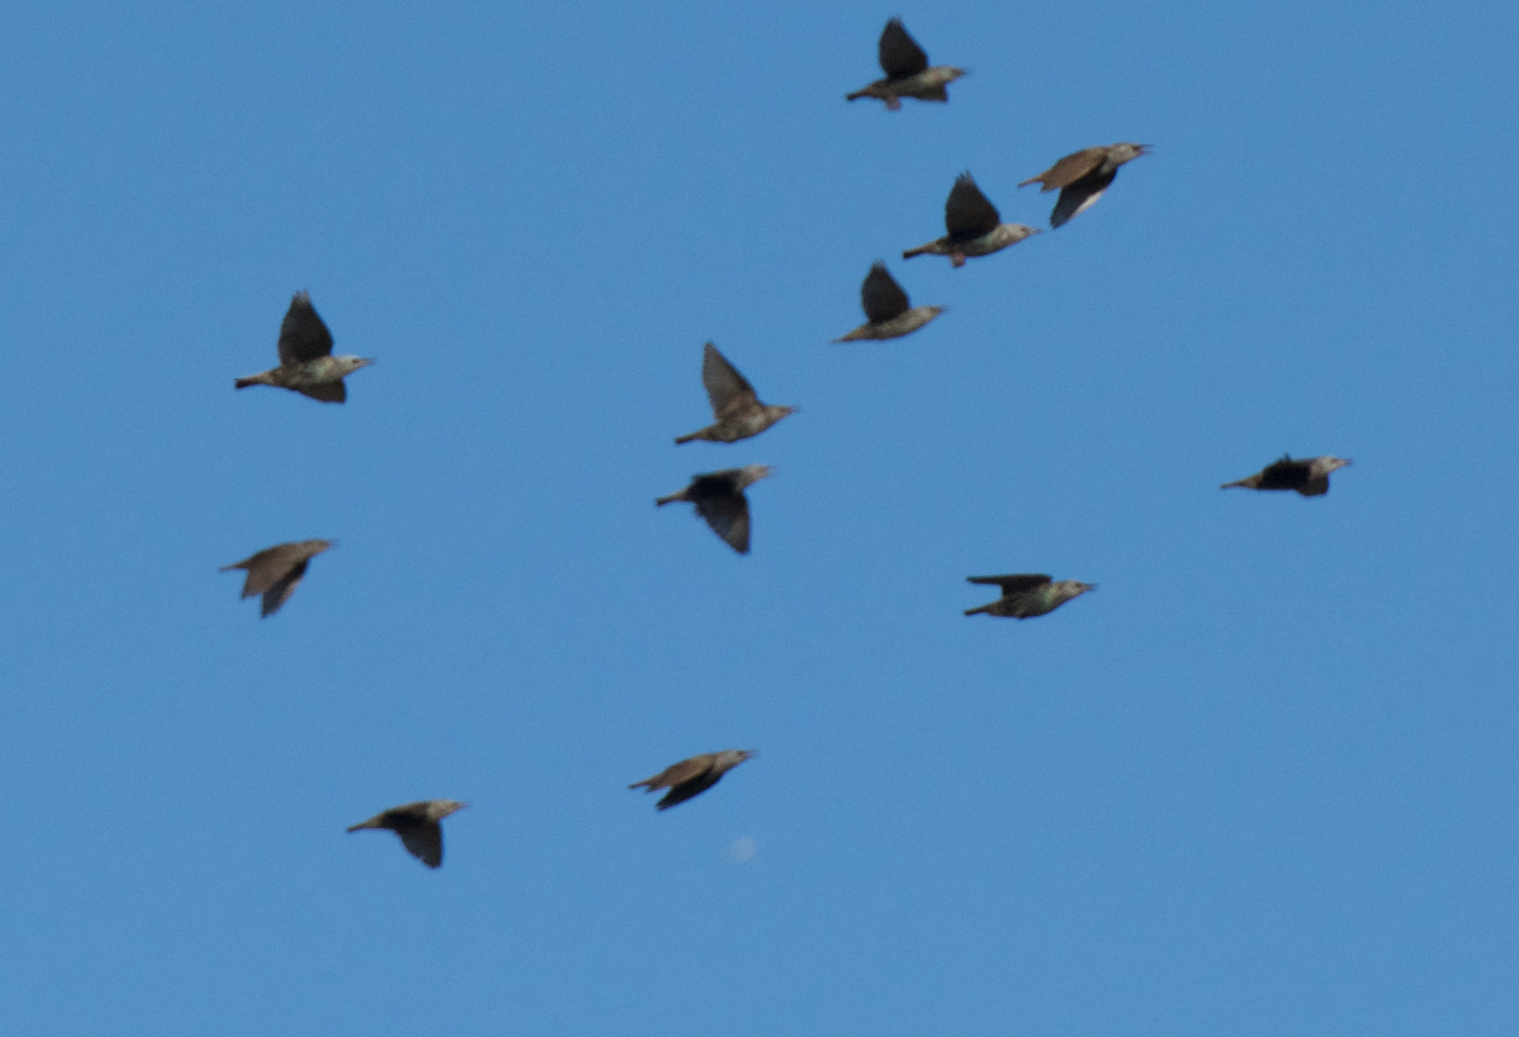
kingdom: Animalia
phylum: Chordata
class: Aves
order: Passeriformes
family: Sturnidae
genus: Sturnus
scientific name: Sturnus vulgaris
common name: Common starling
